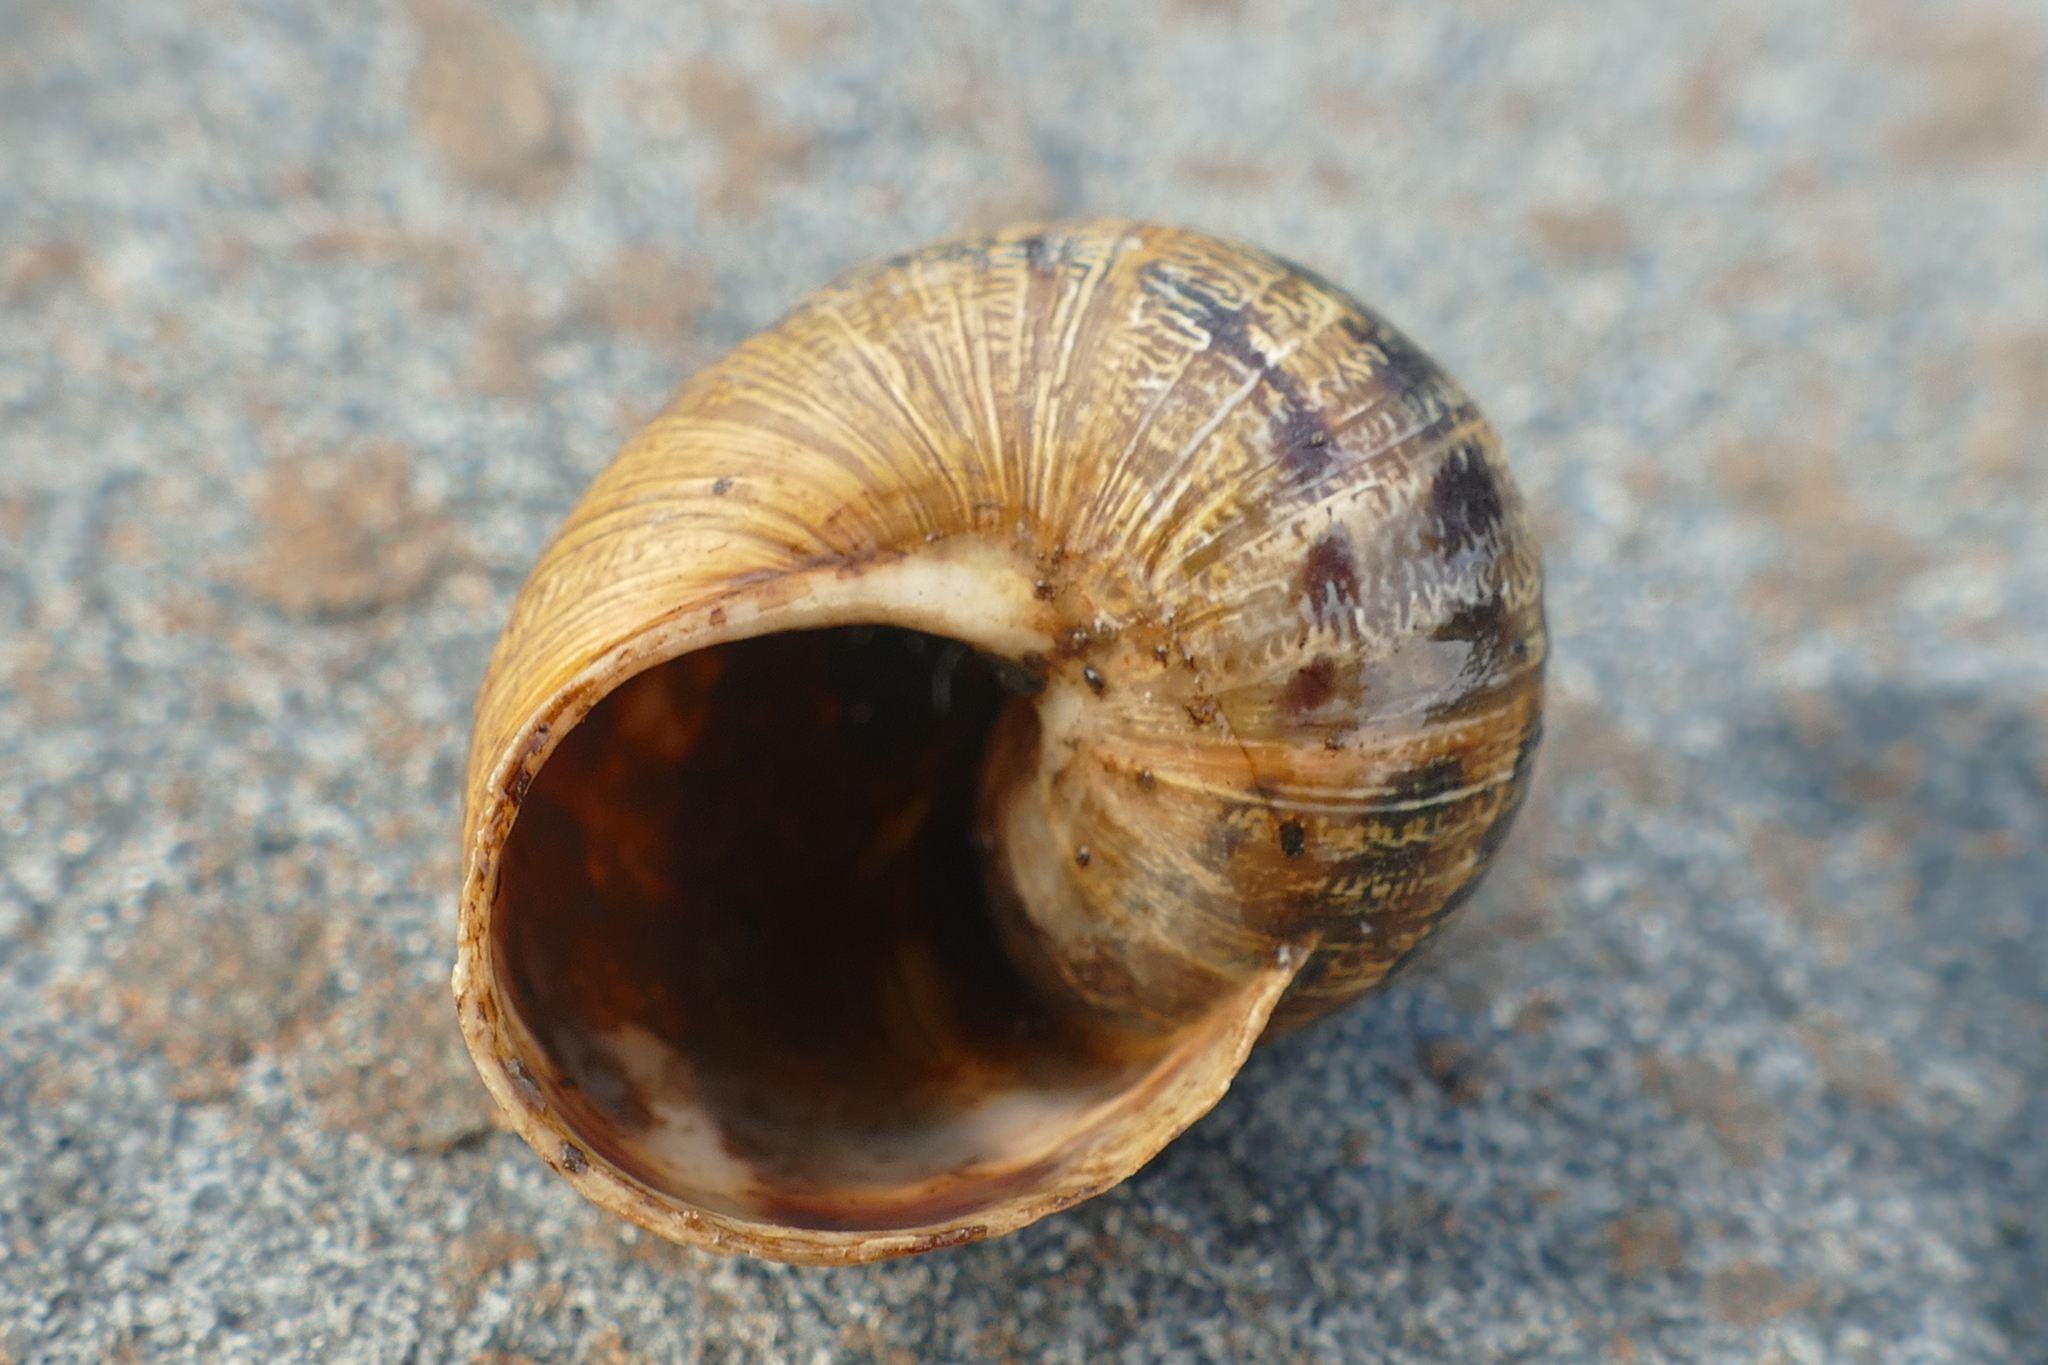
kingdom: Animalia
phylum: Mollusca
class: Gastropoda
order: Stylommatophora
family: Helicidae
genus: Cornu
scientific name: Cornu aspersum
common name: Brown garden snail
